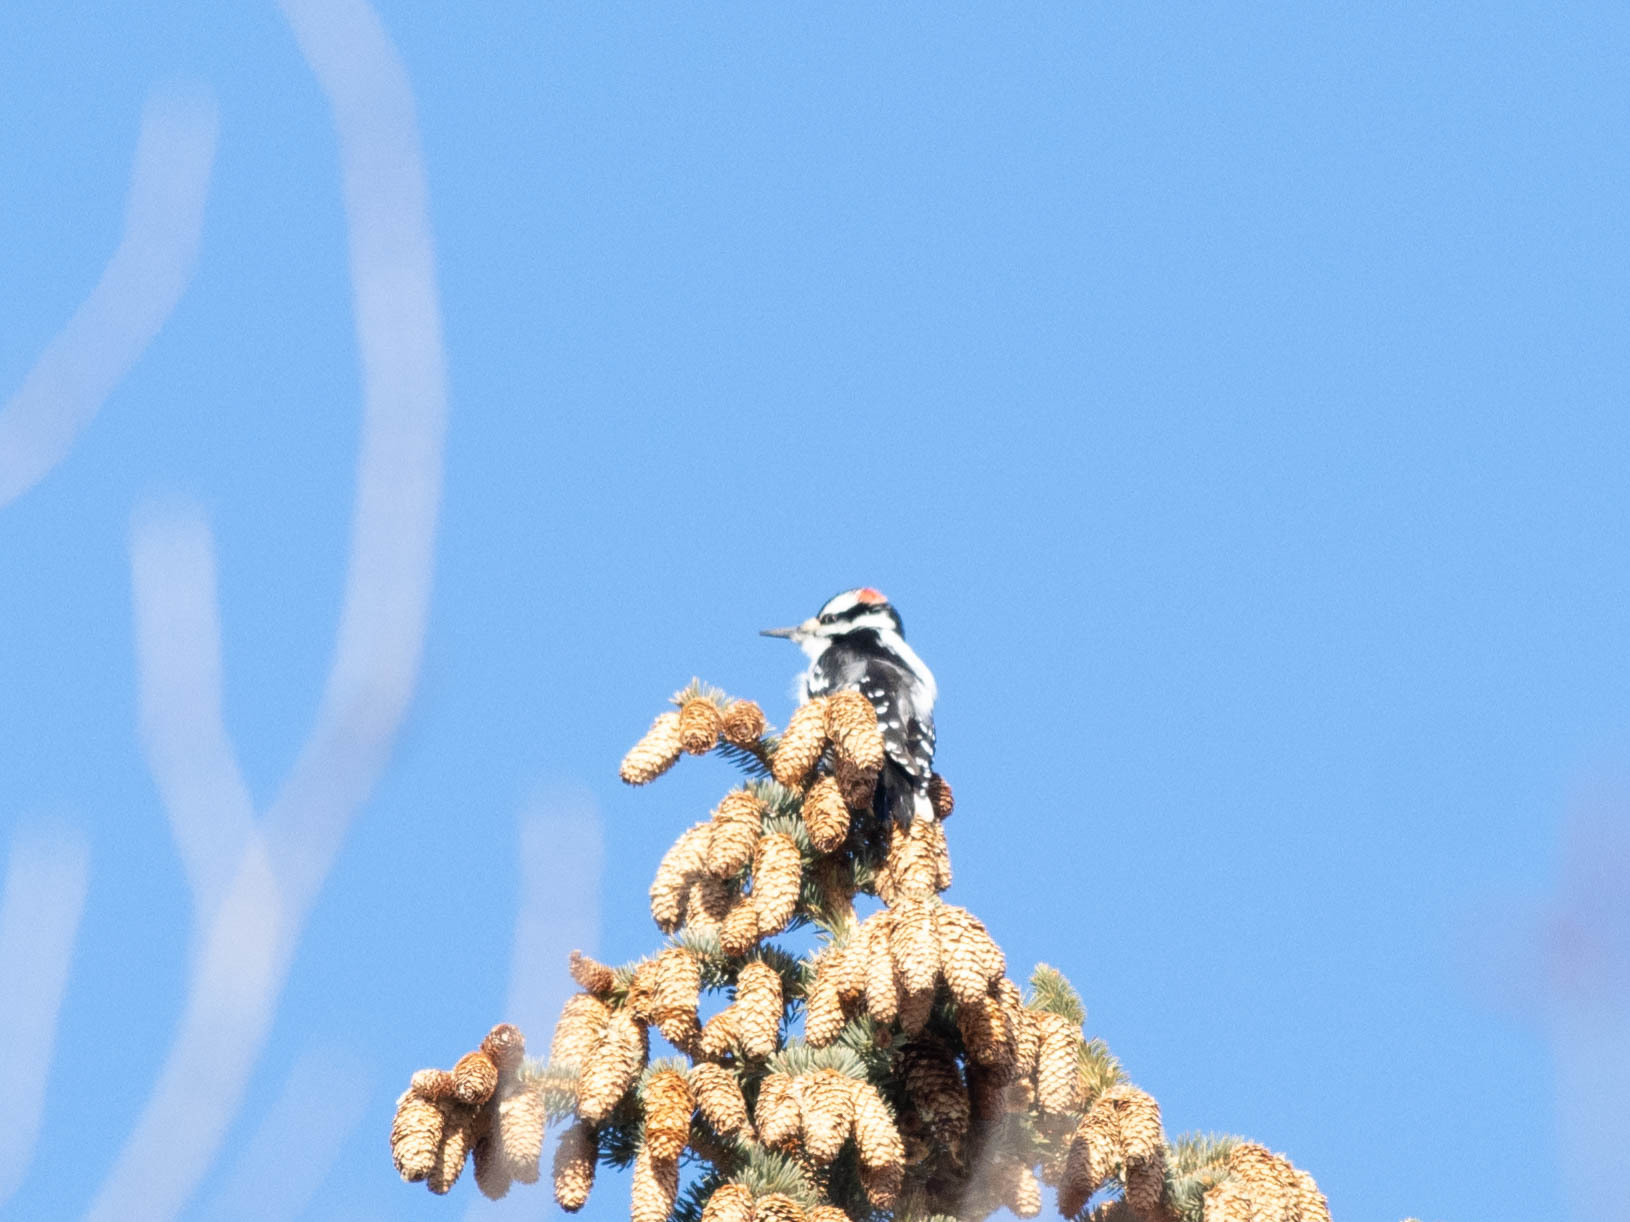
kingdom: Animalia
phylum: Chordata
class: Aves
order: Piciformes
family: Picidae
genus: Leuconotopicus
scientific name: Leuconotopicus villosus
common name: Hairy woodpecker
